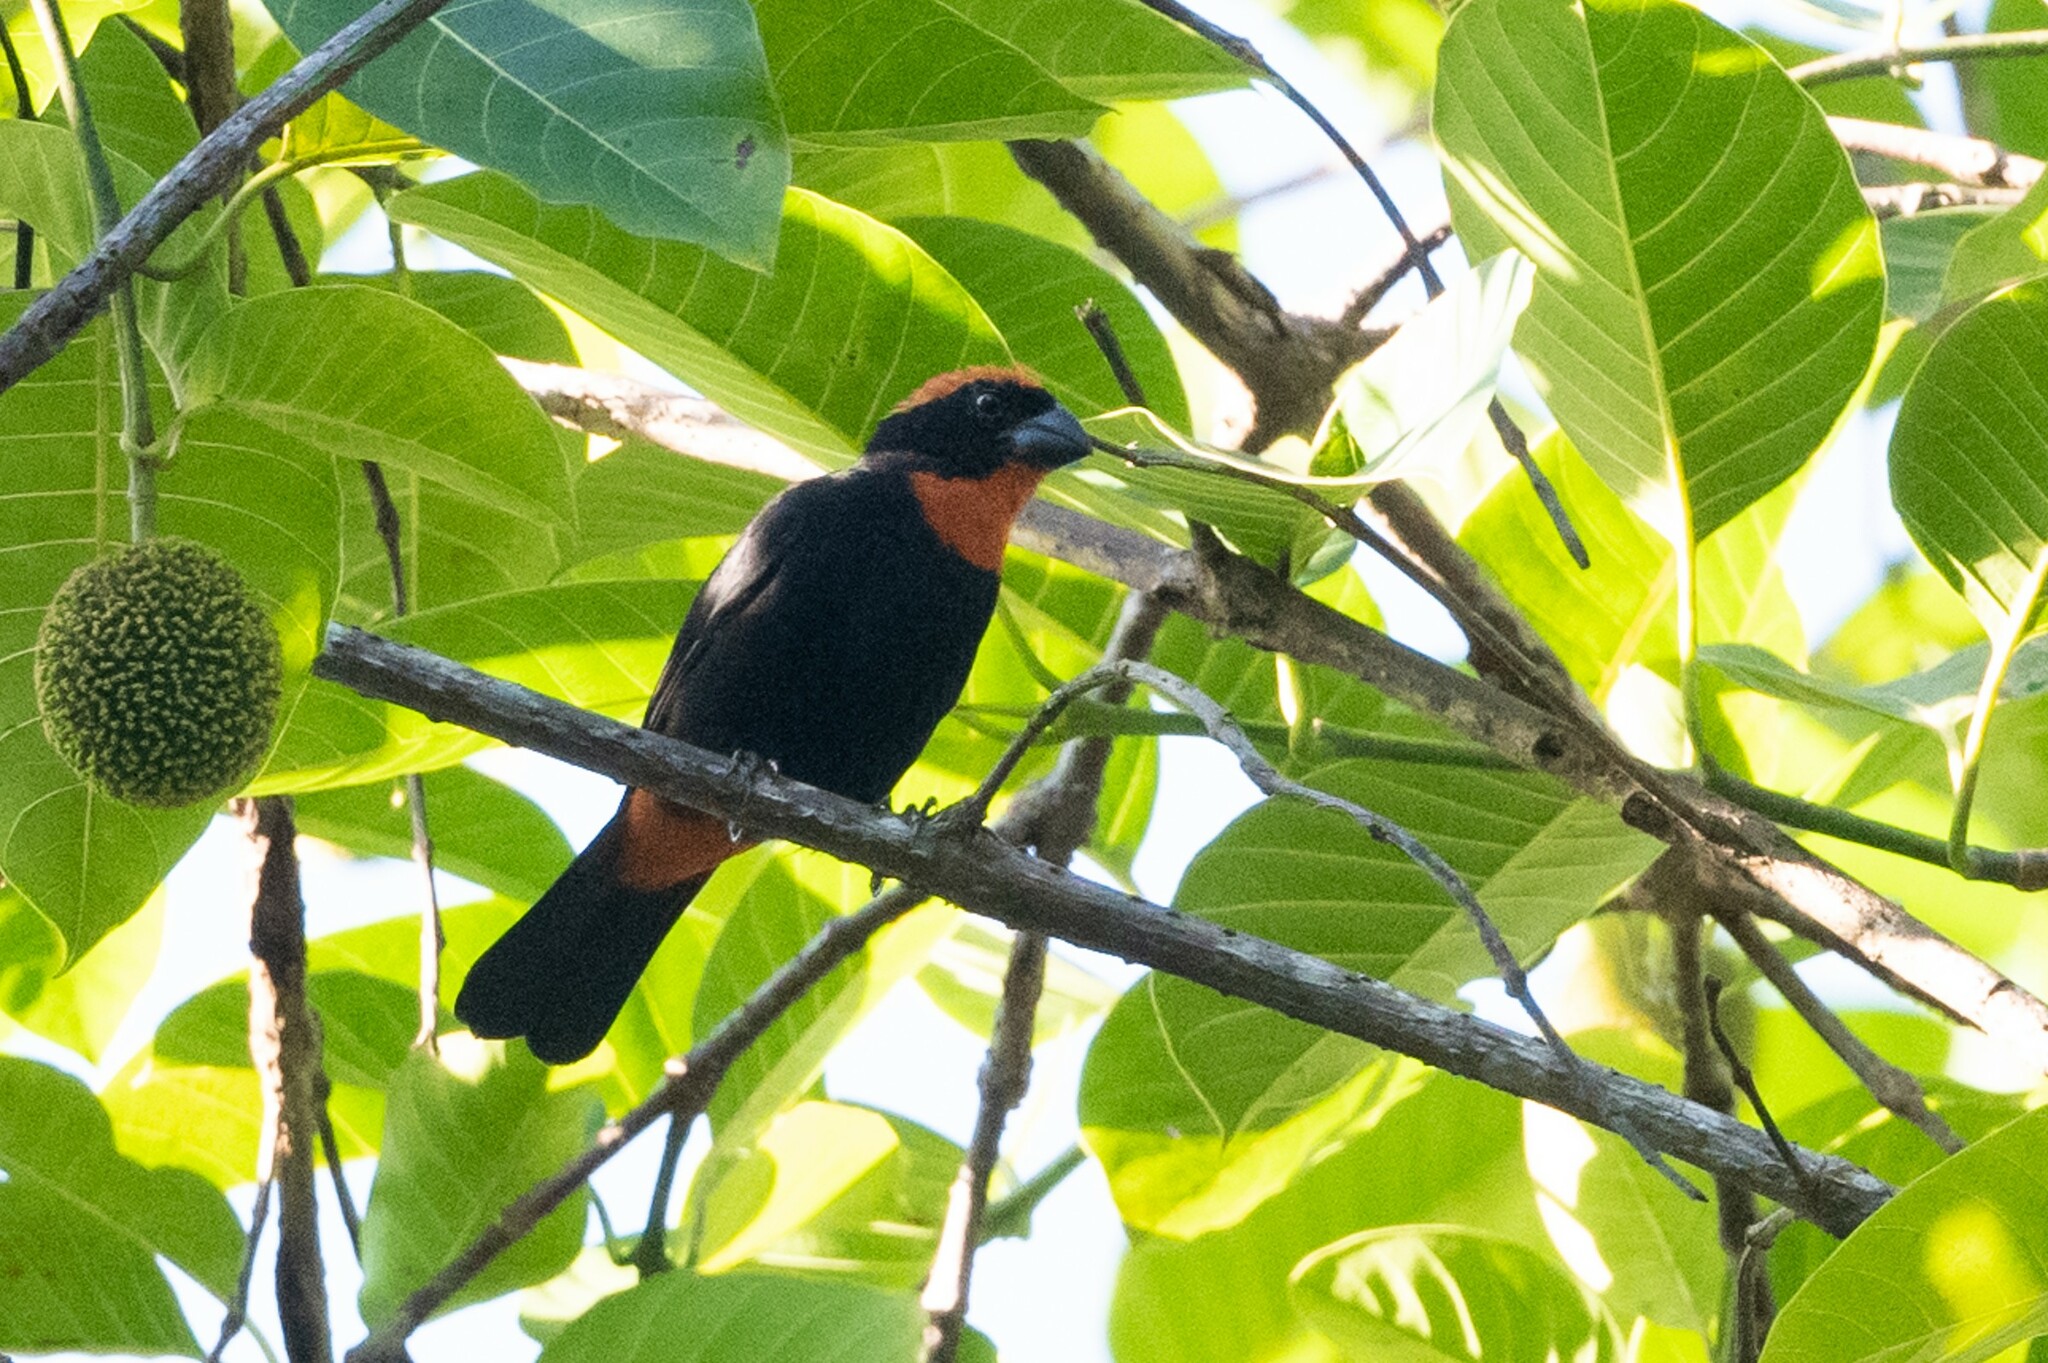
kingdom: Animalia
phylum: Chordata
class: Aves
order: Passeriformes
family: Thraupidae
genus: Melopyrrha
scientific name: Melopyrrha portoricensis
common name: Puerto rican bullfinch
